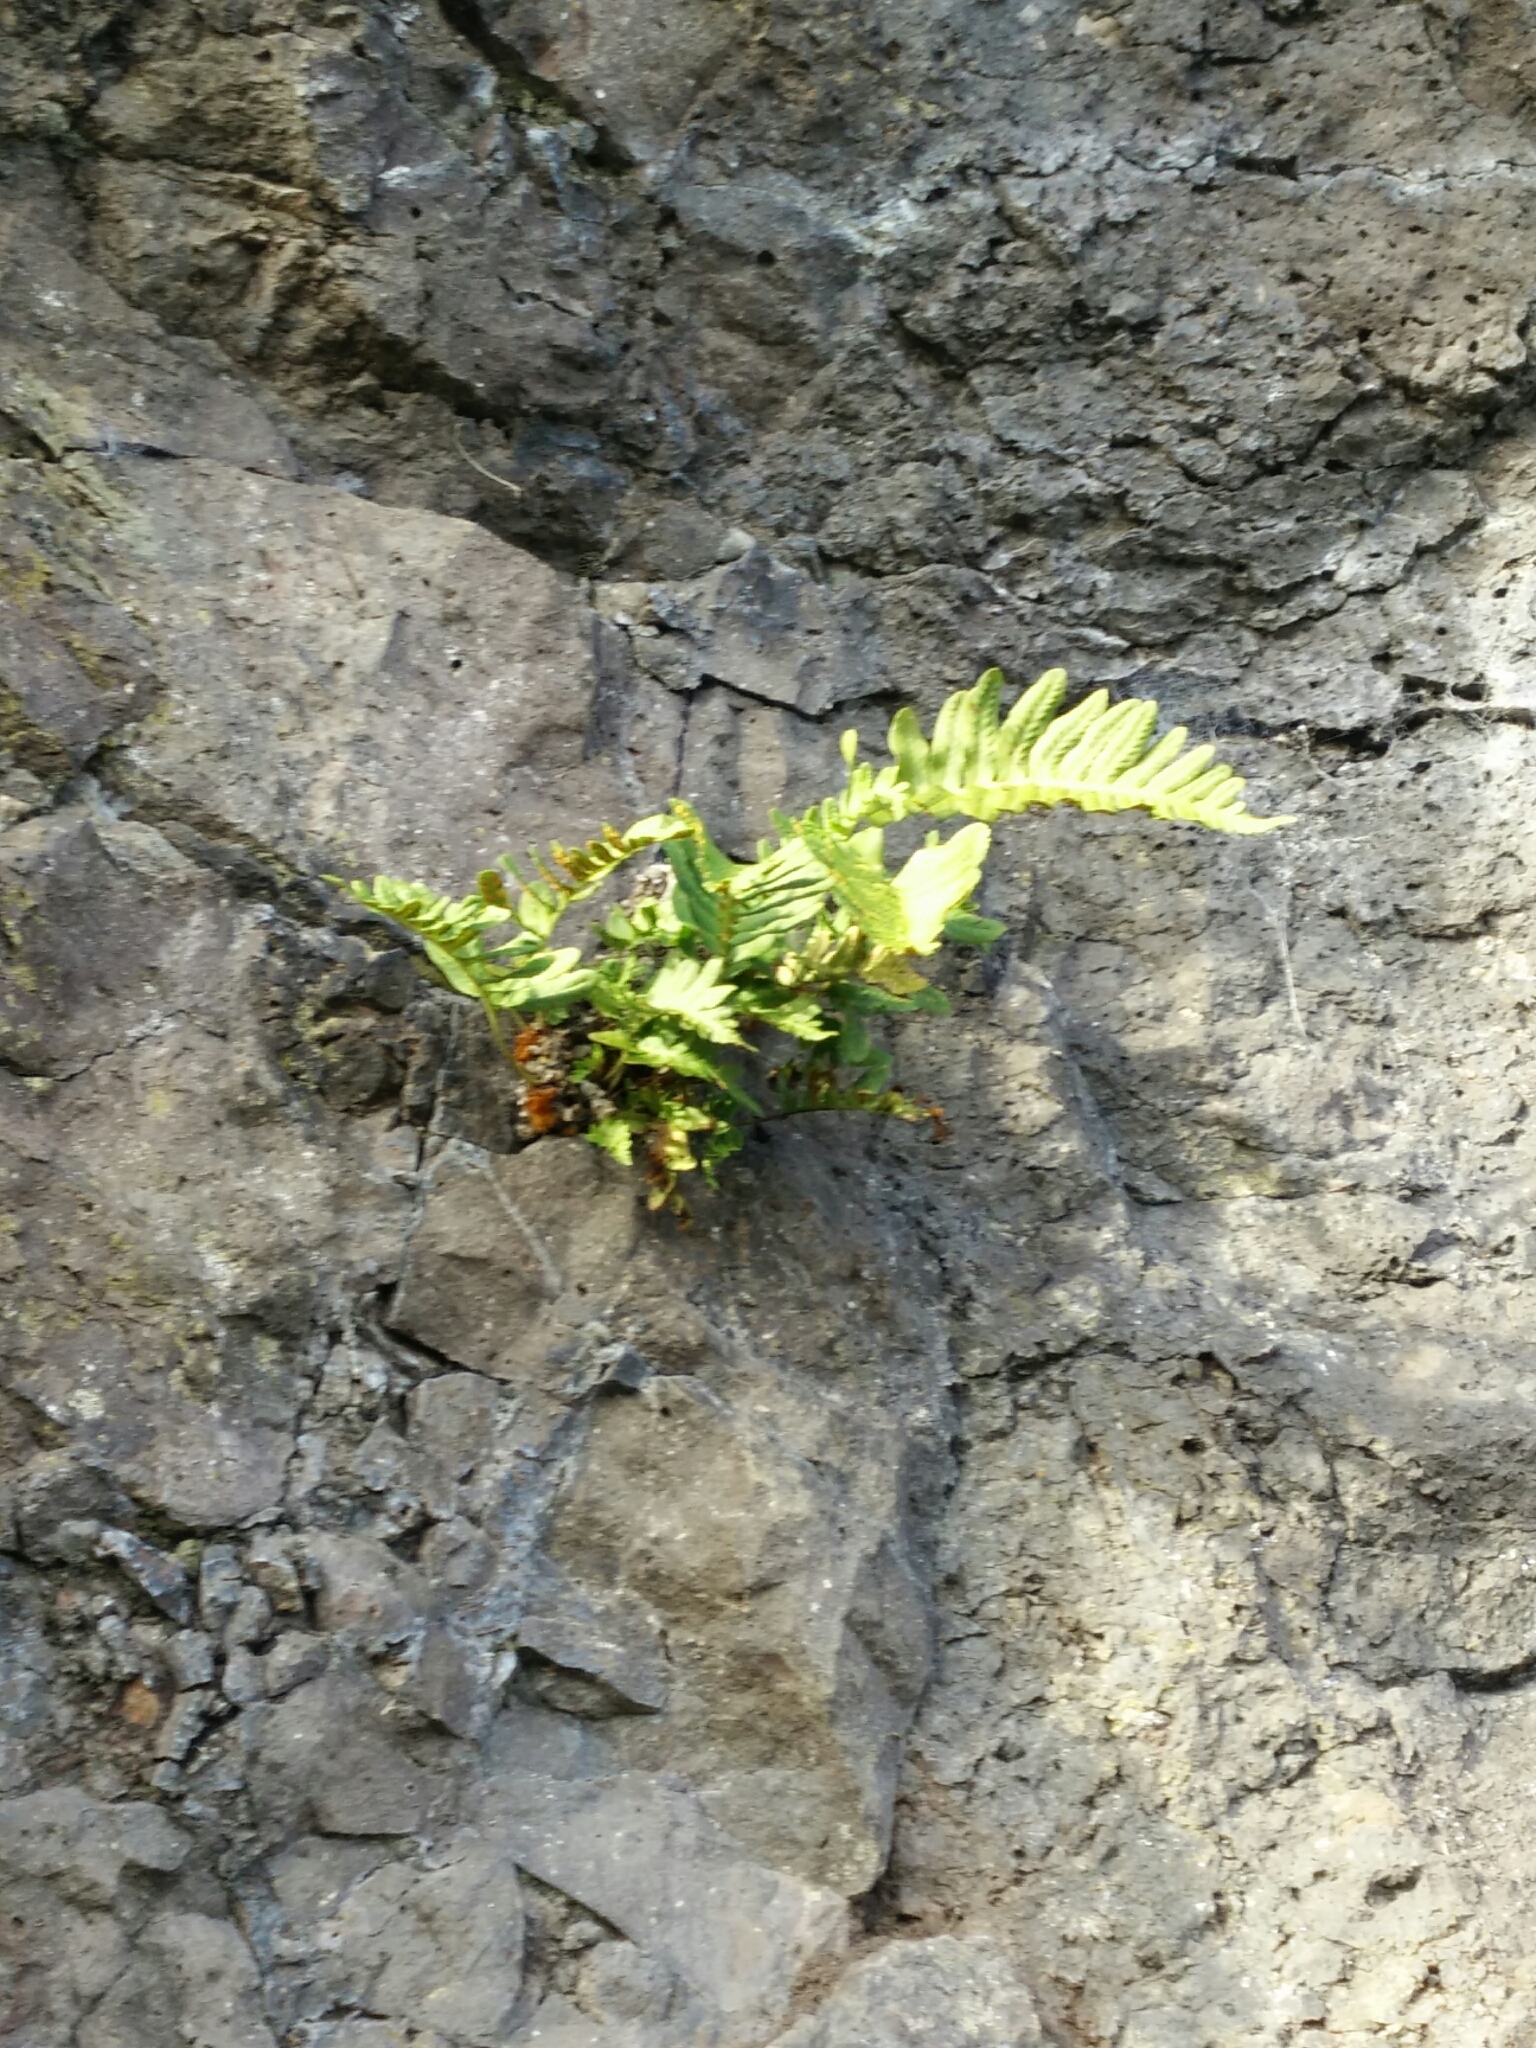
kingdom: Plantae
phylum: Tracheophyta
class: Polypodiopsida
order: Polypodiales
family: Polypodiaceae
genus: Polypodium
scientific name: Polypodium vulgare
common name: Common polypody
